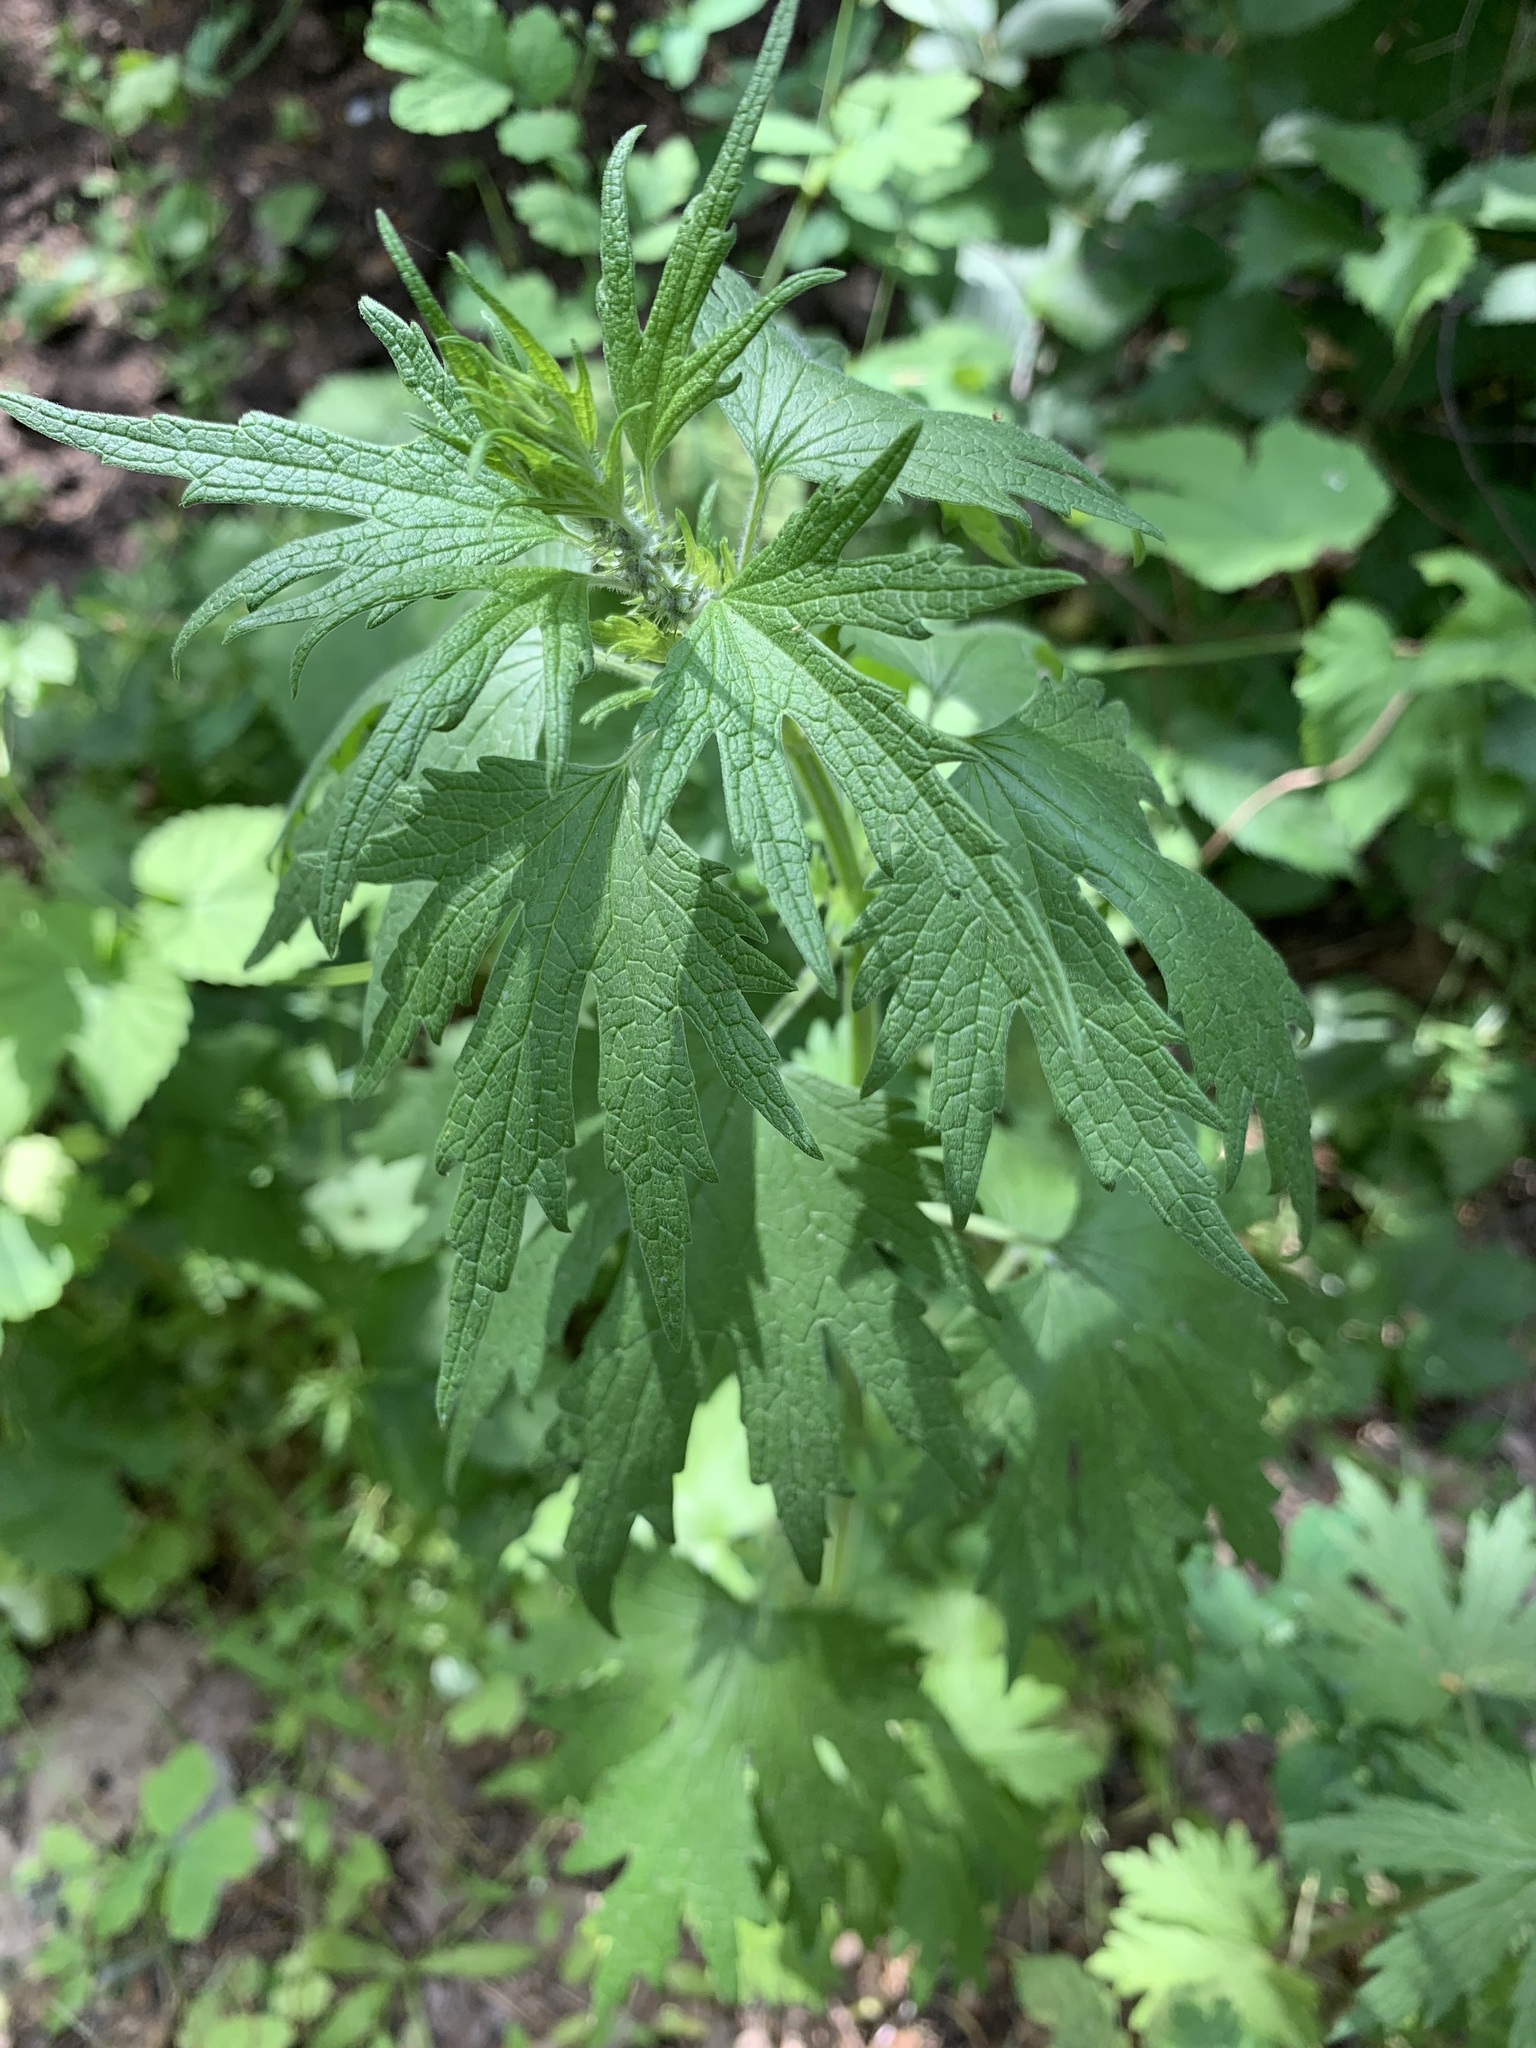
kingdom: Plantae
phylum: Tracheophyta
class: Magnoliopsida
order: Lamiales
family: Lamiaceae
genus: Leonurus
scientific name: Leonurus quinquelobatus
